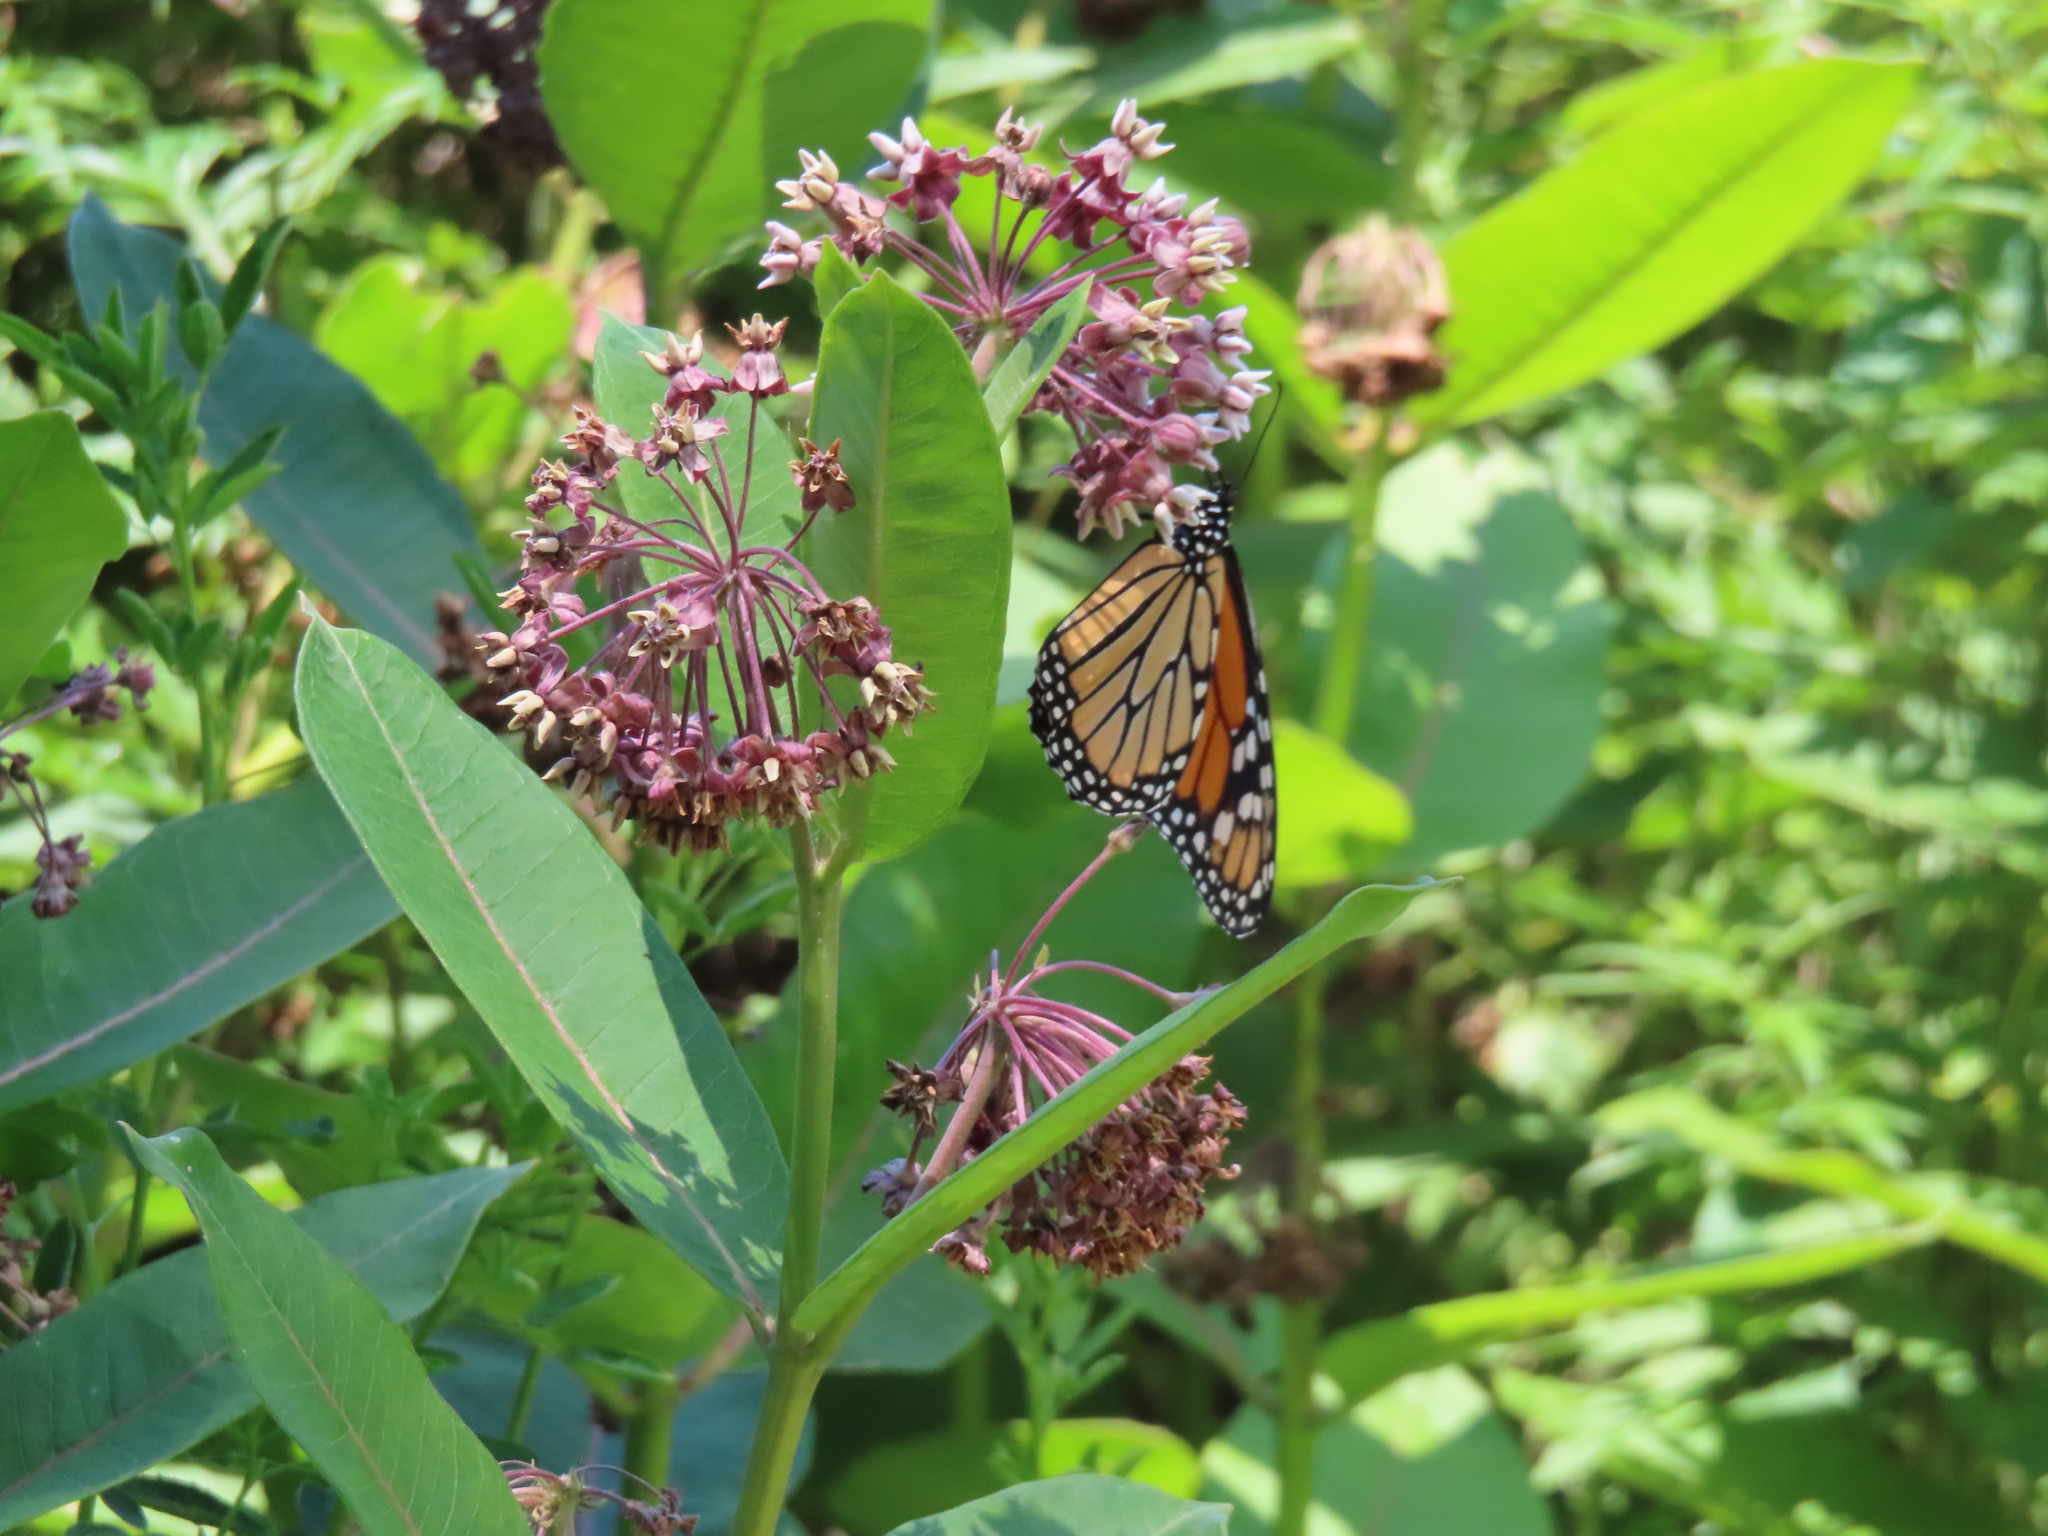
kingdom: Animalia
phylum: Arthropoda
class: Insecta
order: Lepidoptera
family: Nymphalidae
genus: Danaus
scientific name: Danaus plexippus
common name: Monarch
